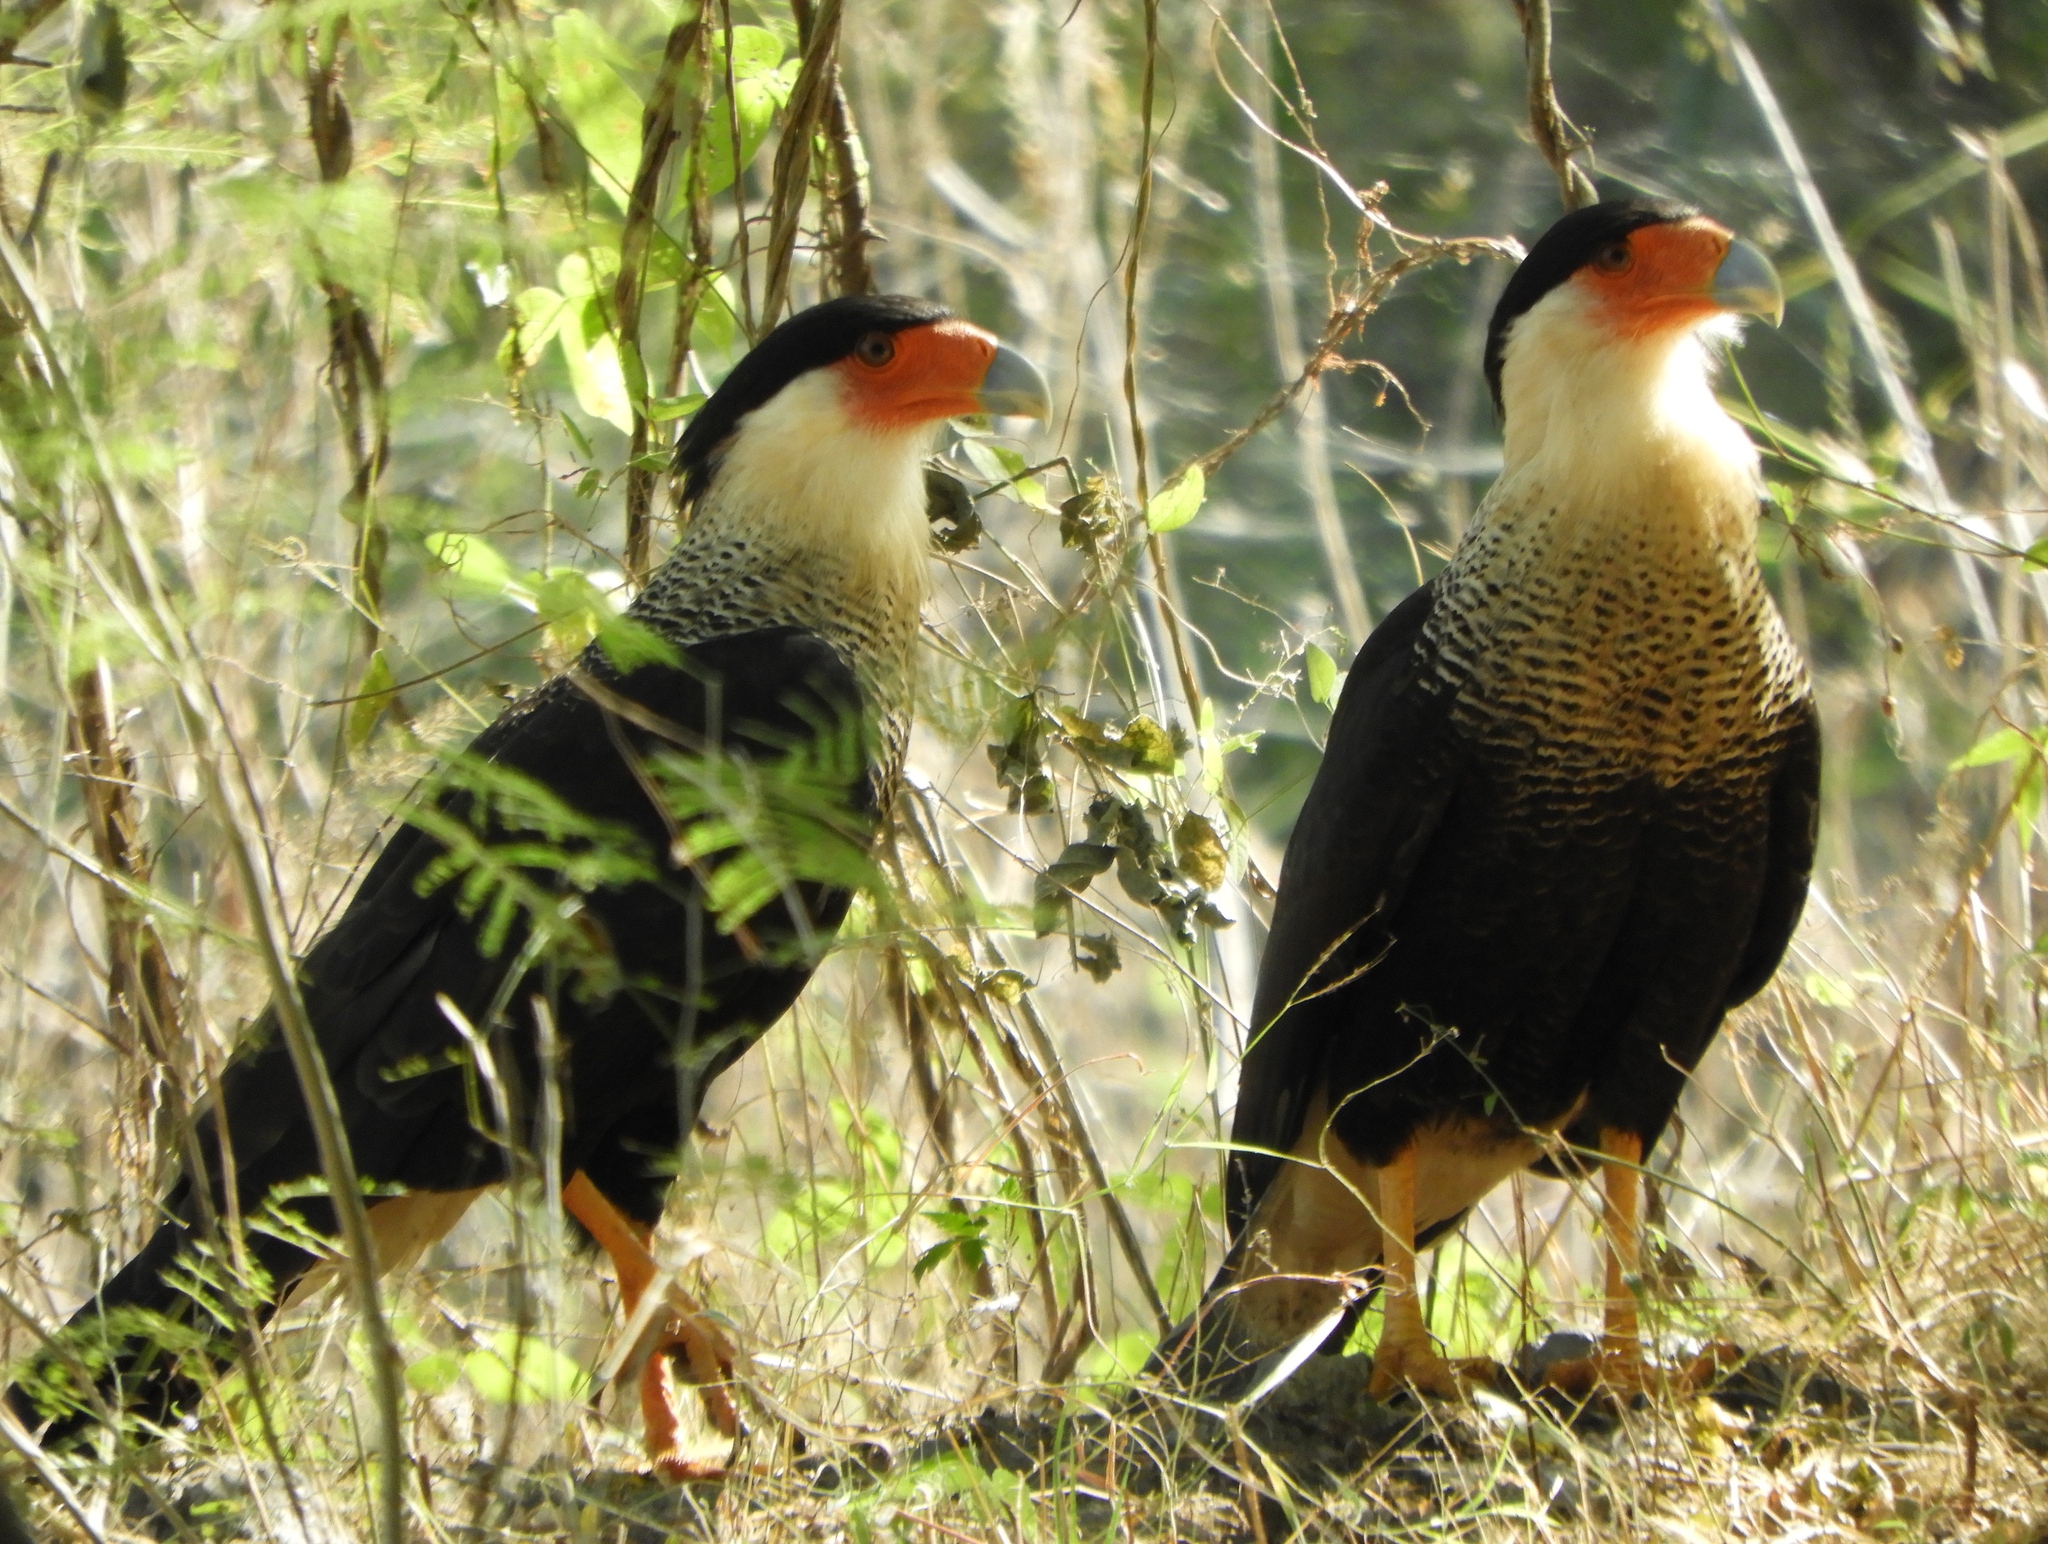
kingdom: Animalia
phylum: Chordata
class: Aves
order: Falconiformes
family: Falconidae
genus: Caracara
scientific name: Caracara plancus
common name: Southern caracara
